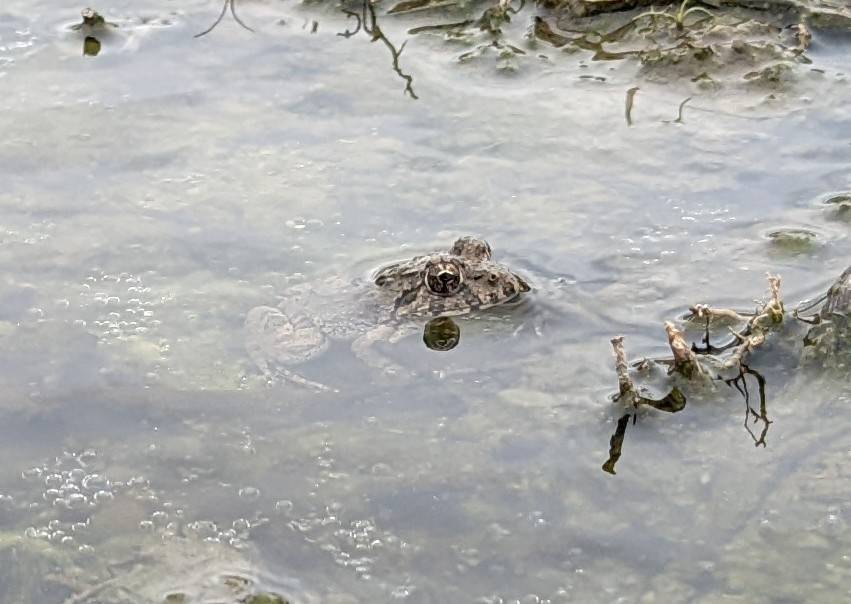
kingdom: Animalia
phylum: Chordata
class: Amphibia
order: Anura
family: Dicroglossidae
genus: Fejervarya
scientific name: Fejervarya limnocharis
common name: Asian grass frog/common pond frog/field frog/grass frog/indian rice frog
